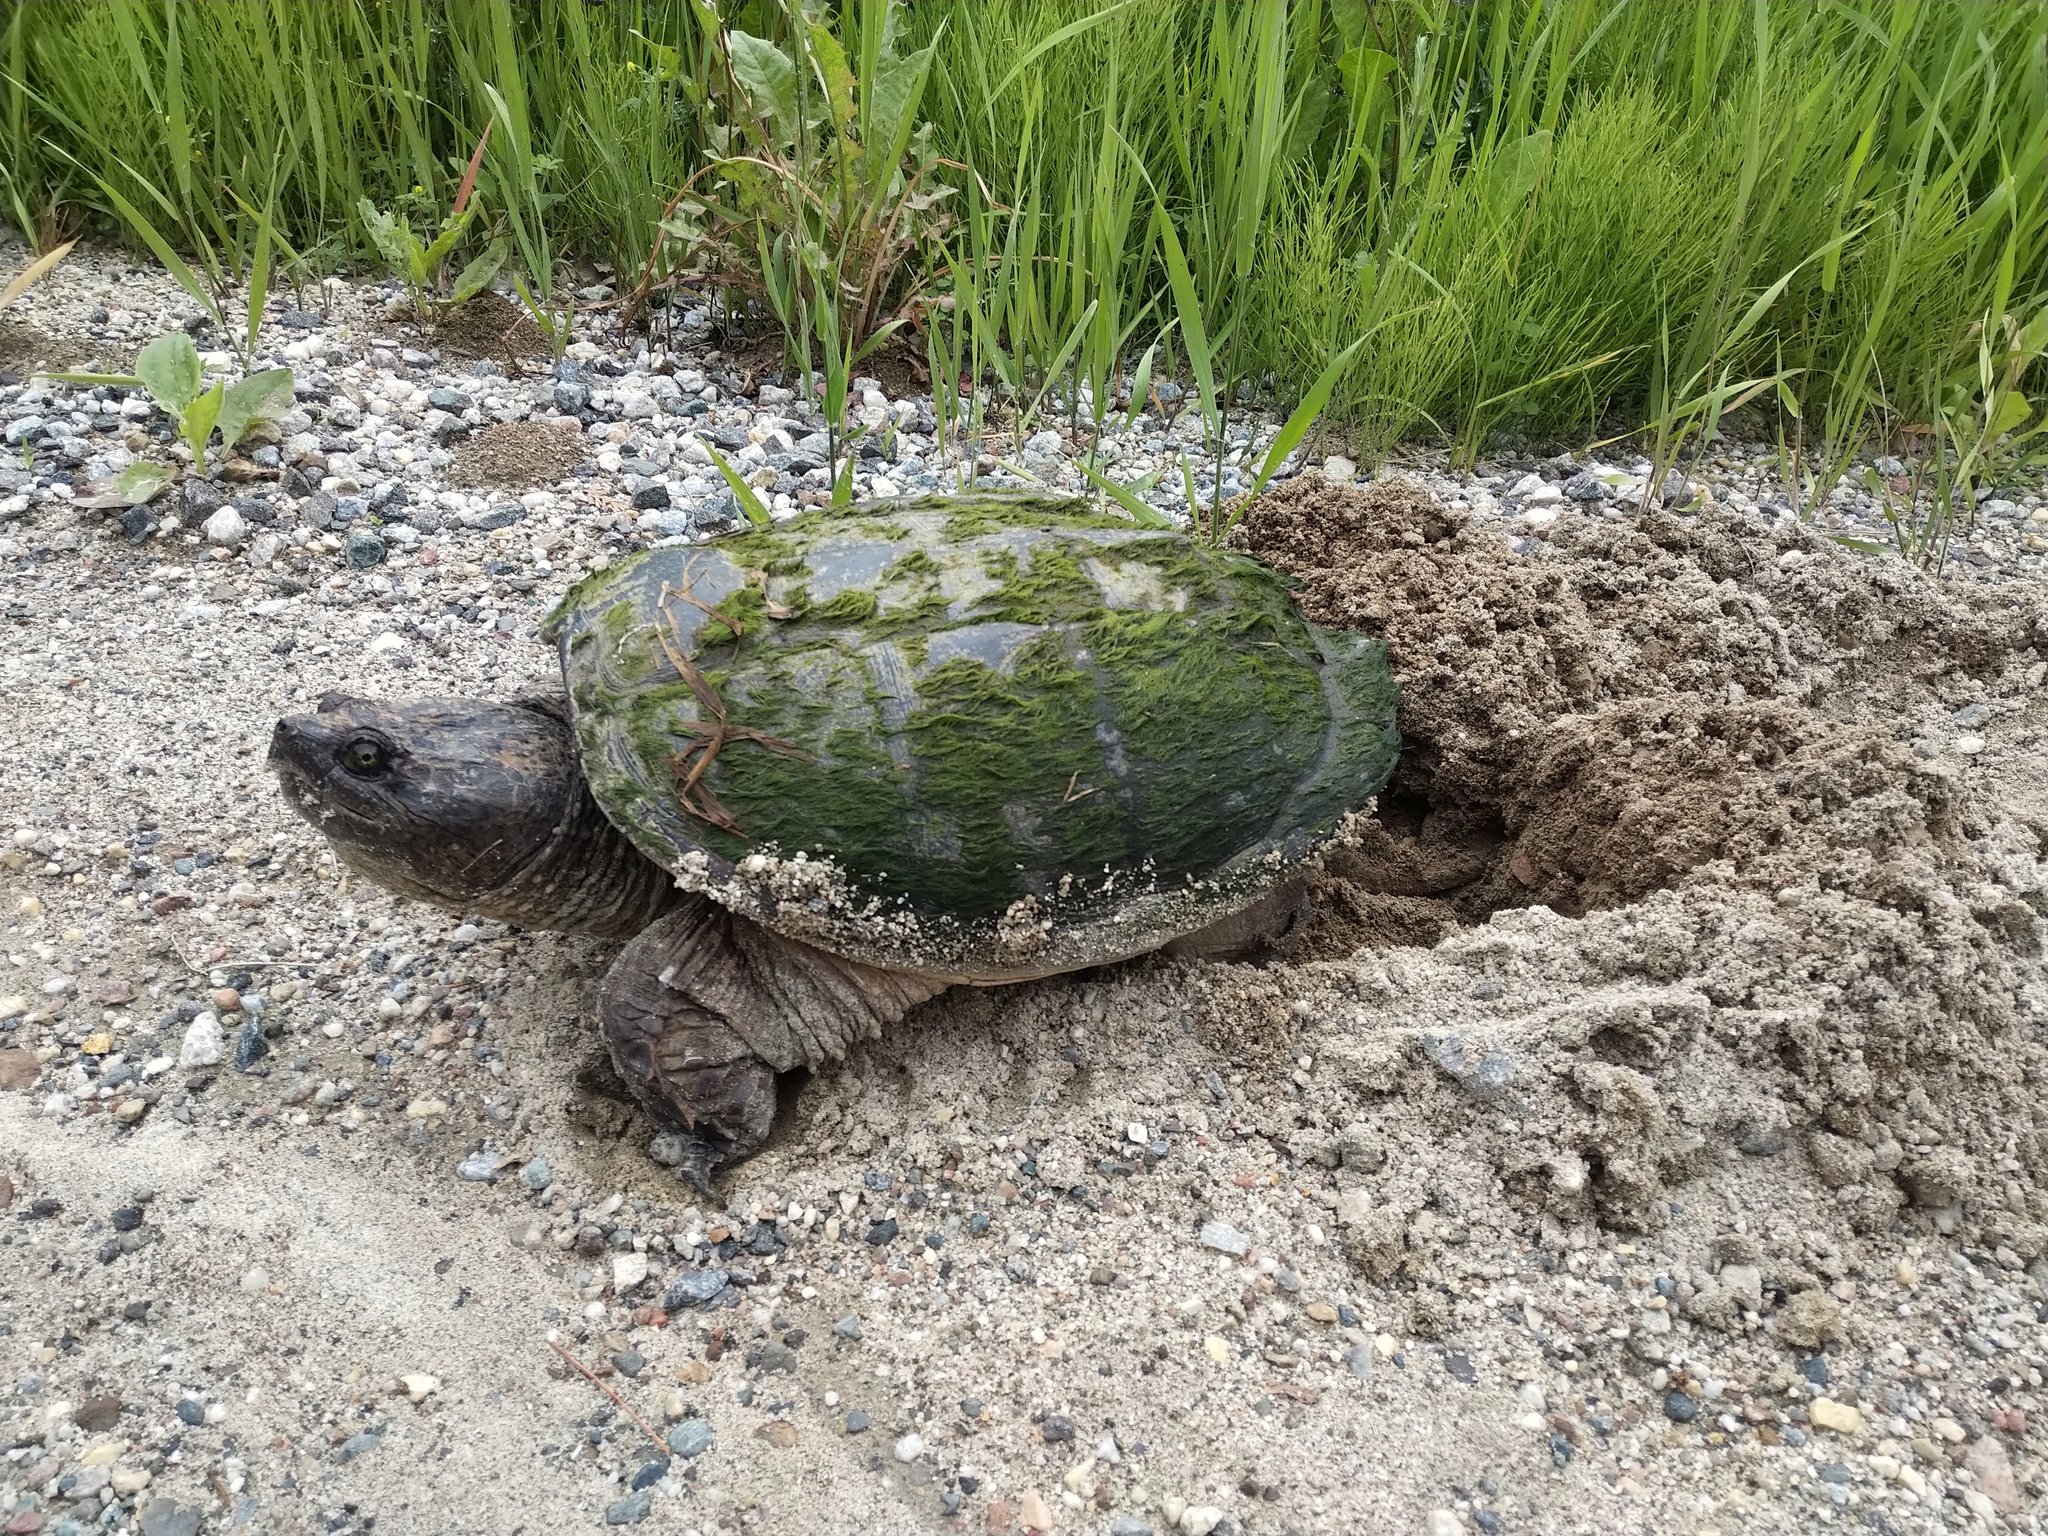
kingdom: Animalia
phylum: Chordata
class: Testudines
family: Chelydridae
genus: Chelydra
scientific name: Chelydra serpentina
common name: Common snapping turtle
